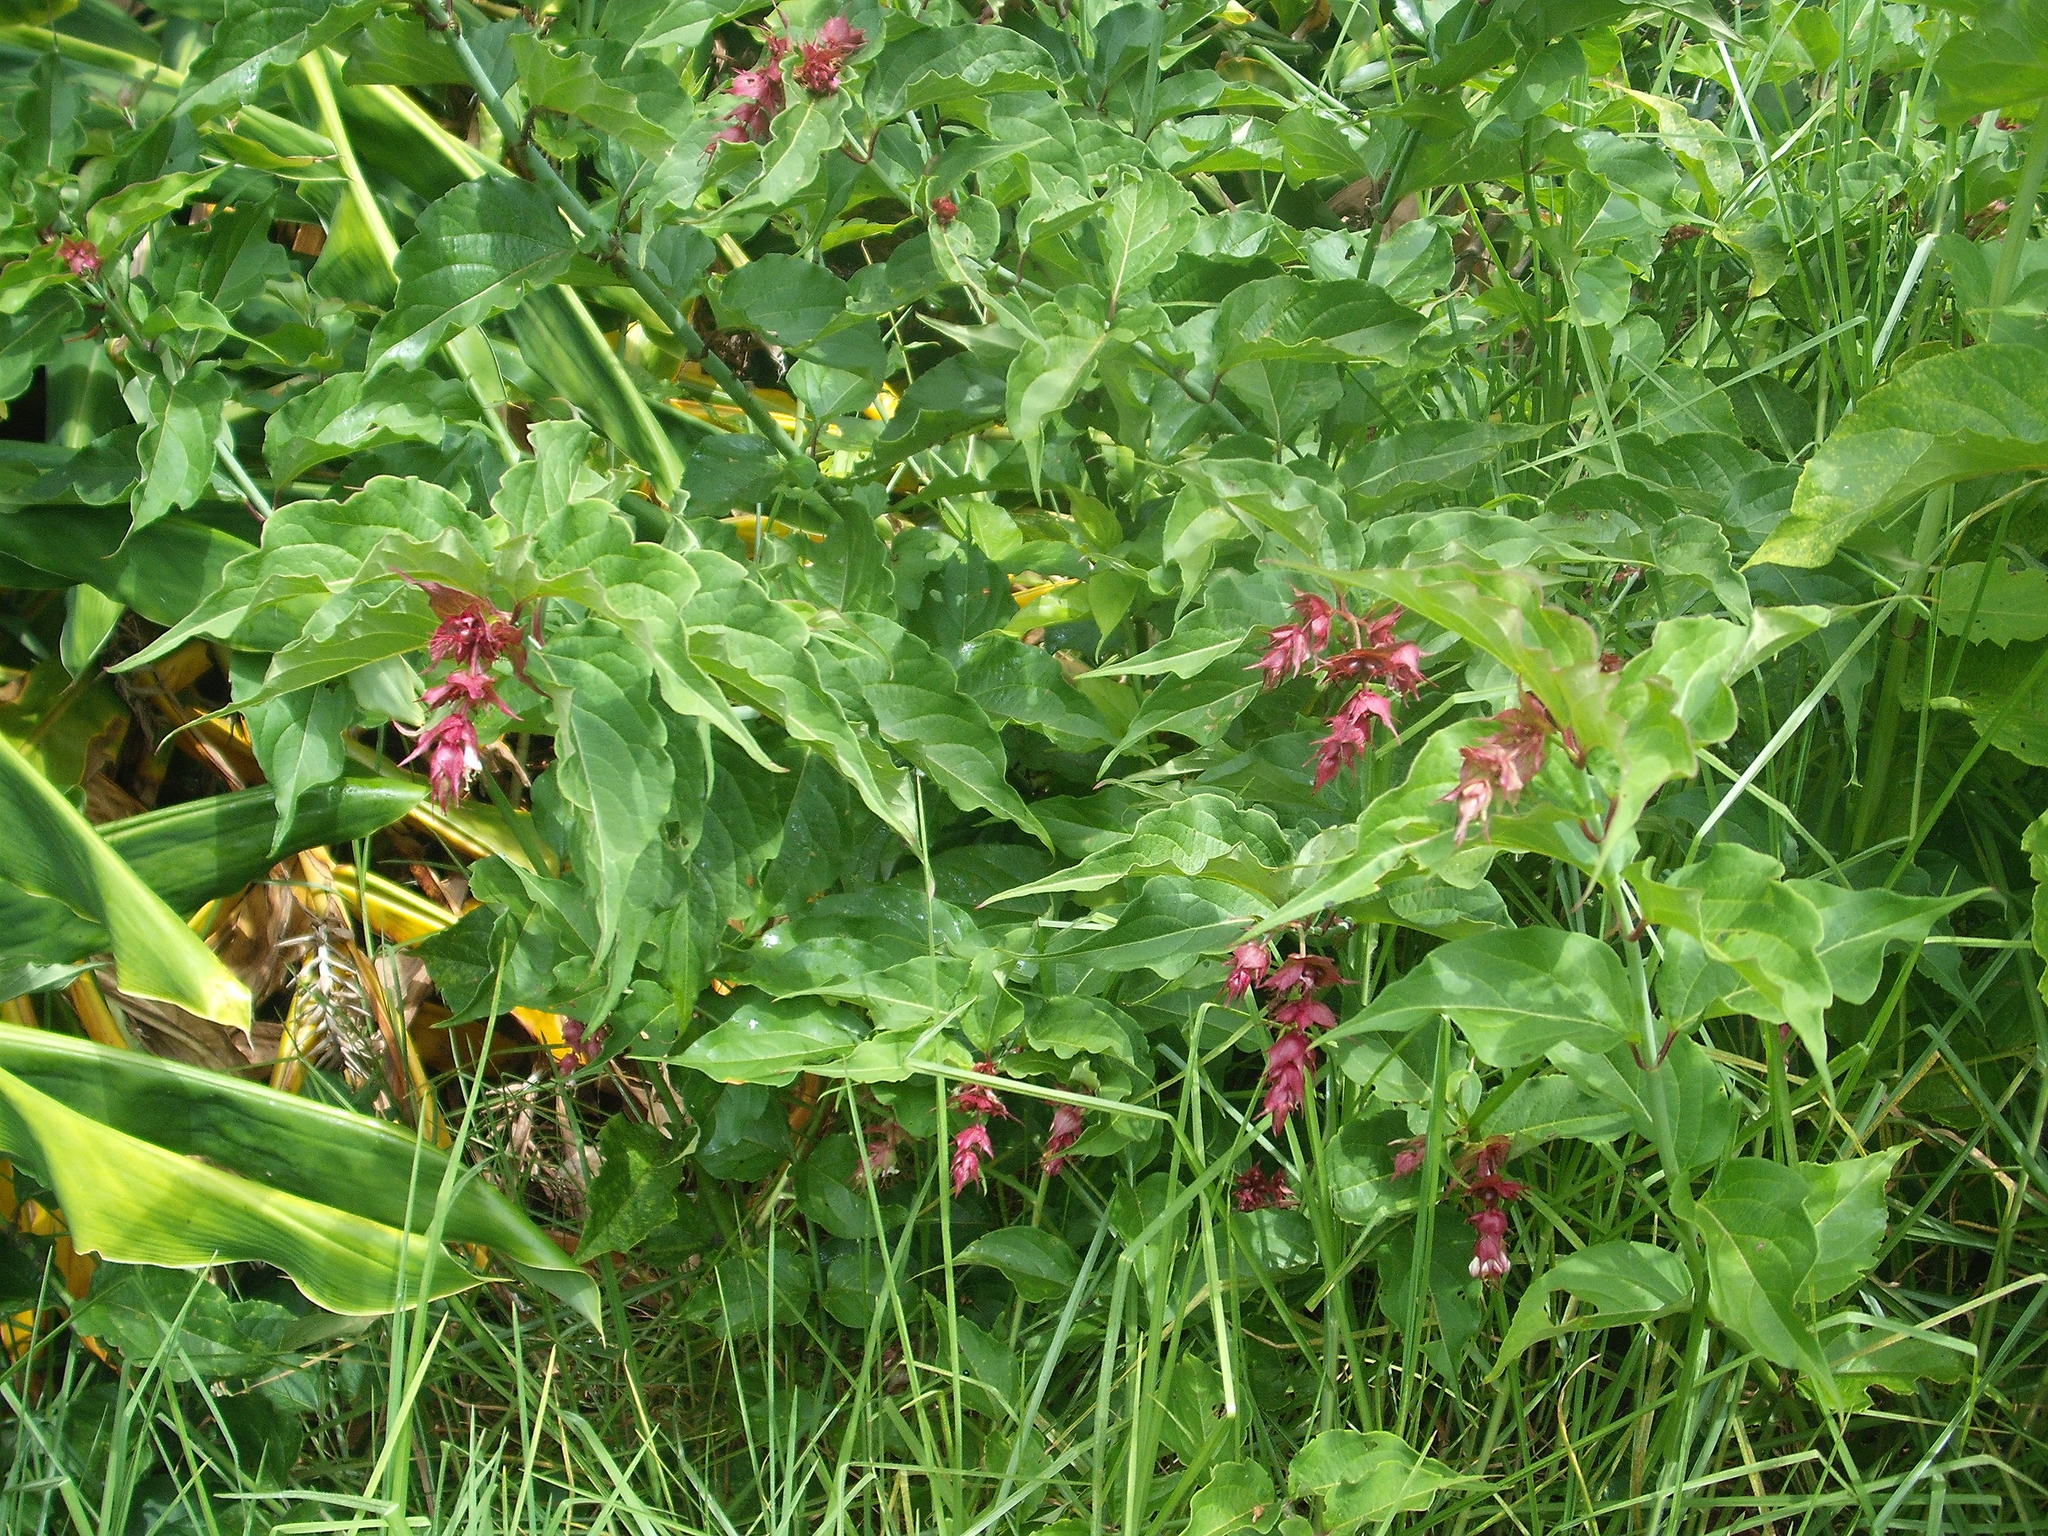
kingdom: Plantae
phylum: Tracheophyta
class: Magnoliopsida
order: Dipsacales
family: Caprifoliaceae
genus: Leycesteria
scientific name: Leycesteria formosa
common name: Himalayan honeysuckle
